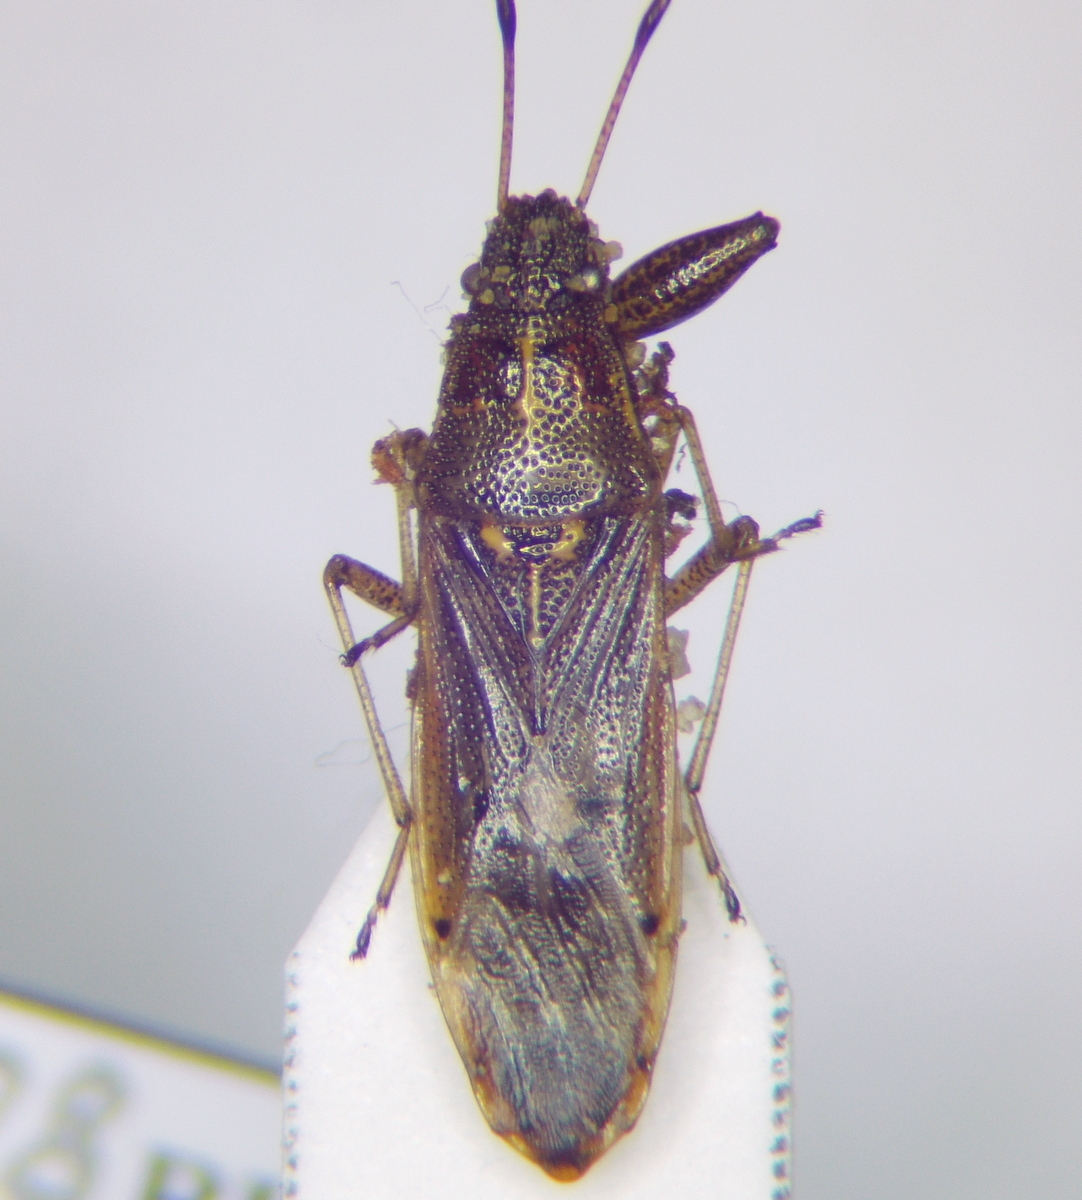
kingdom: Animalia
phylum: Arthropoda
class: Insecta
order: Hemiptera
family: Pachygronthidae
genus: Pachygrontha
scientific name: Pachygrontha antennata
